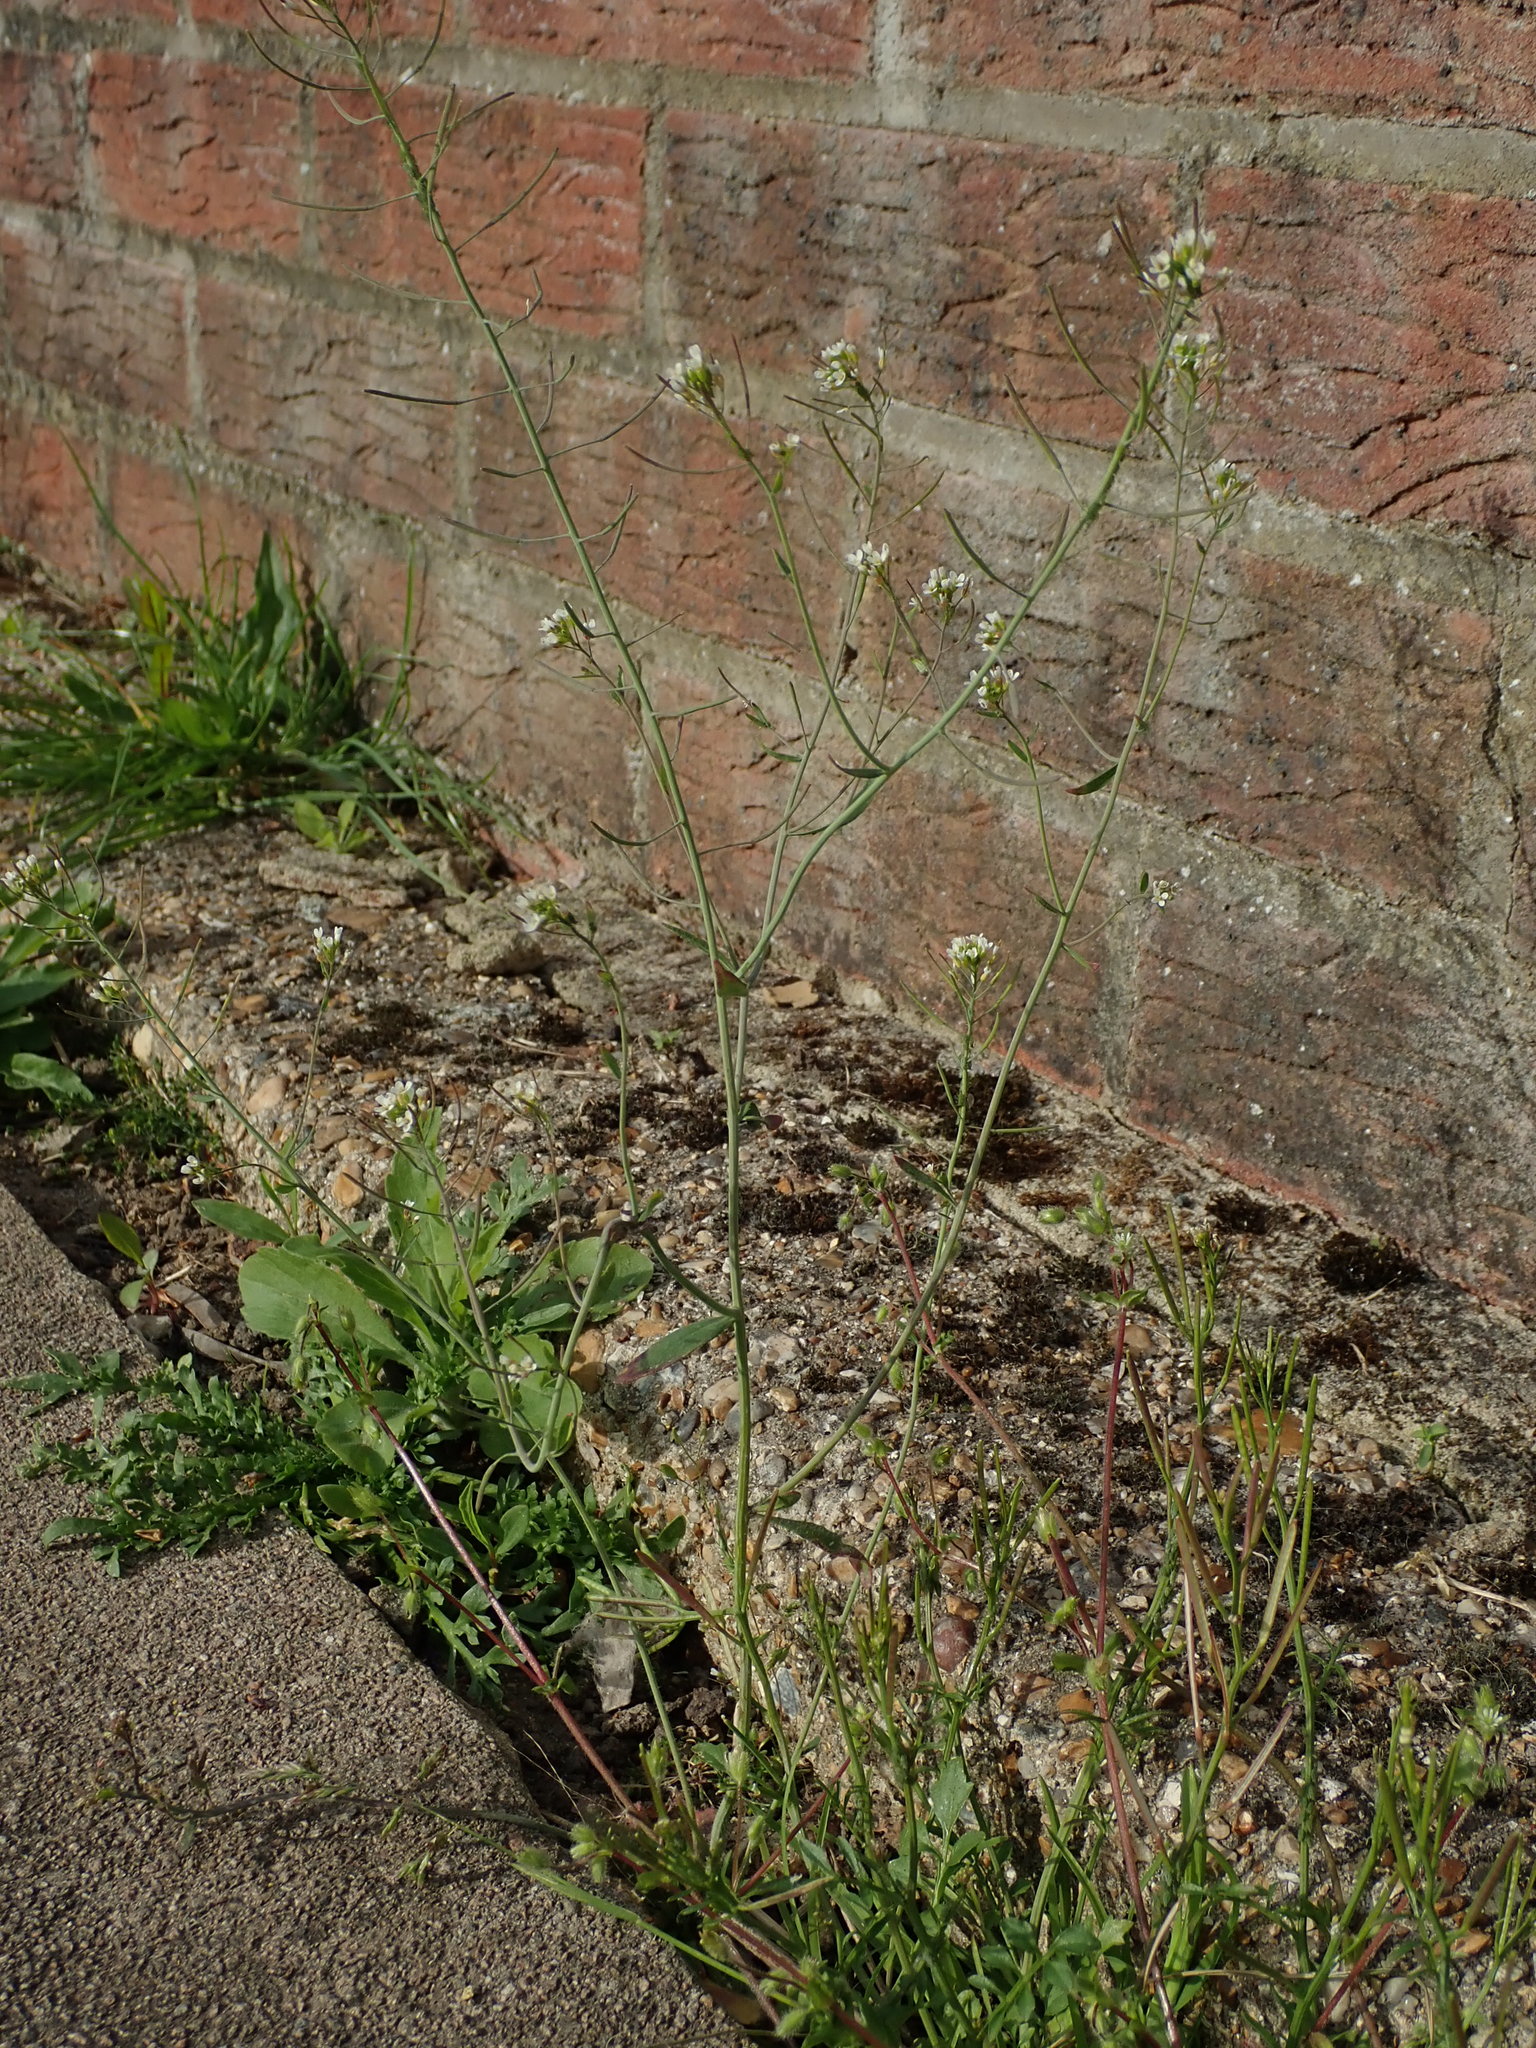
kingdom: Plantae
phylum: Tracheophyta
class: Magnoliopsida
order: Brassicales
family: Brassicaceae
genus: Arabidopsis
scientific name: Arabidopsis thaliana
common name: Thale cress
